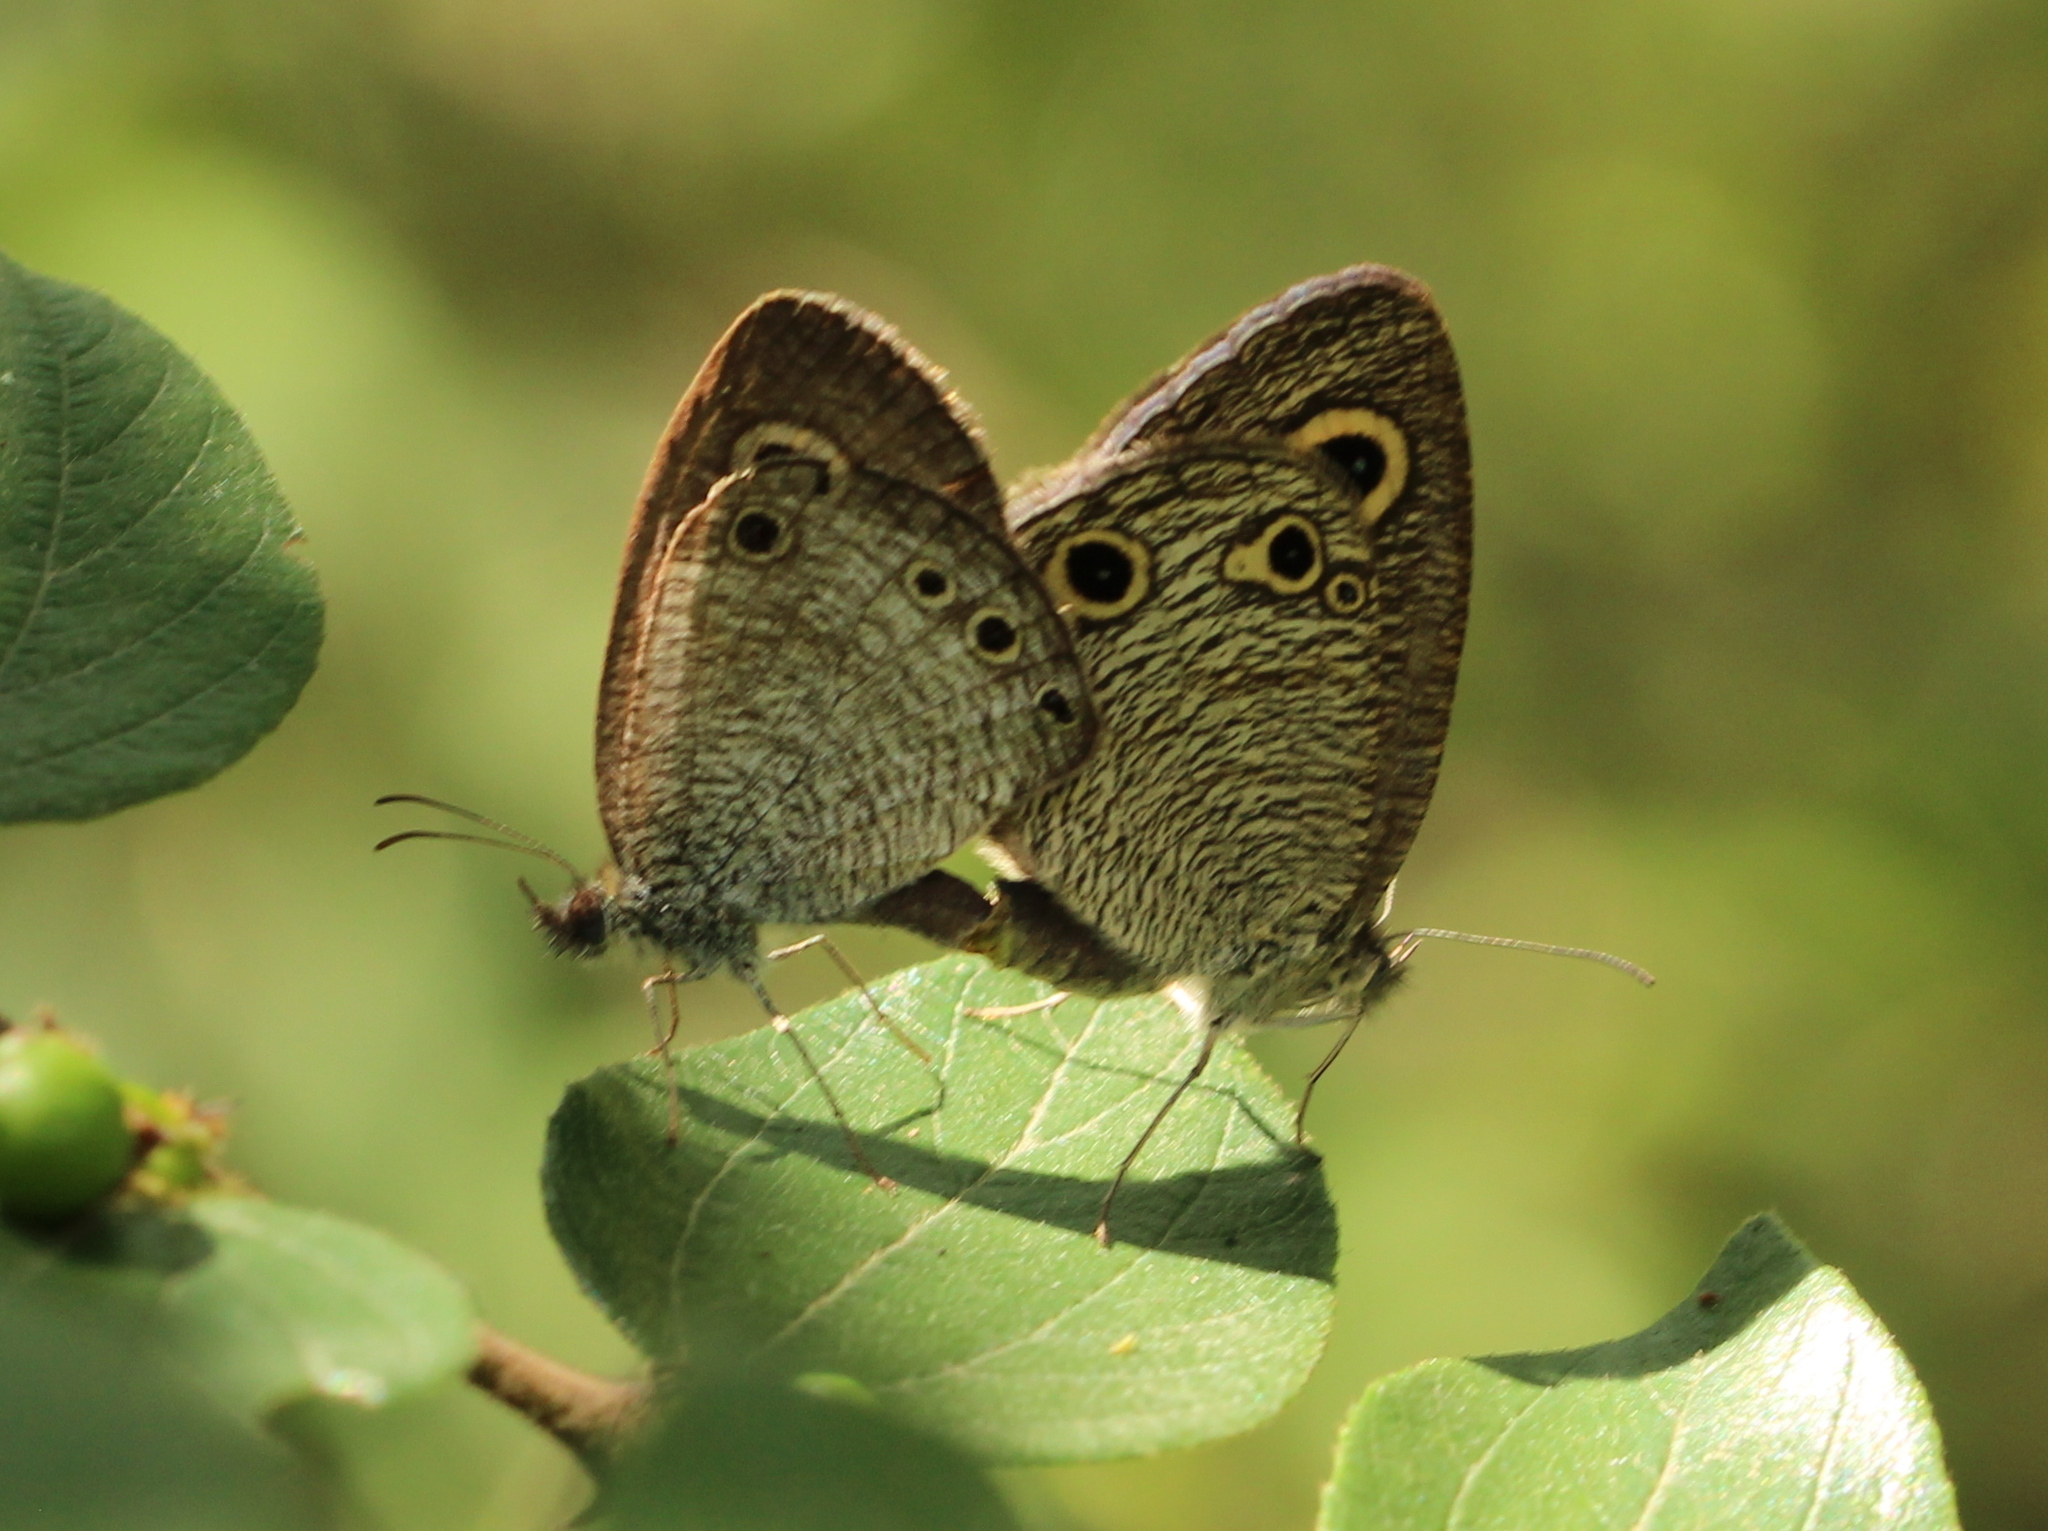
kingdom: Animalia
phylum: Arthropoda
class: Insecta
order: Lepidoptera
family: Nymphalidae
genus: Ypthima
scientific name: Ypthima huebneri
